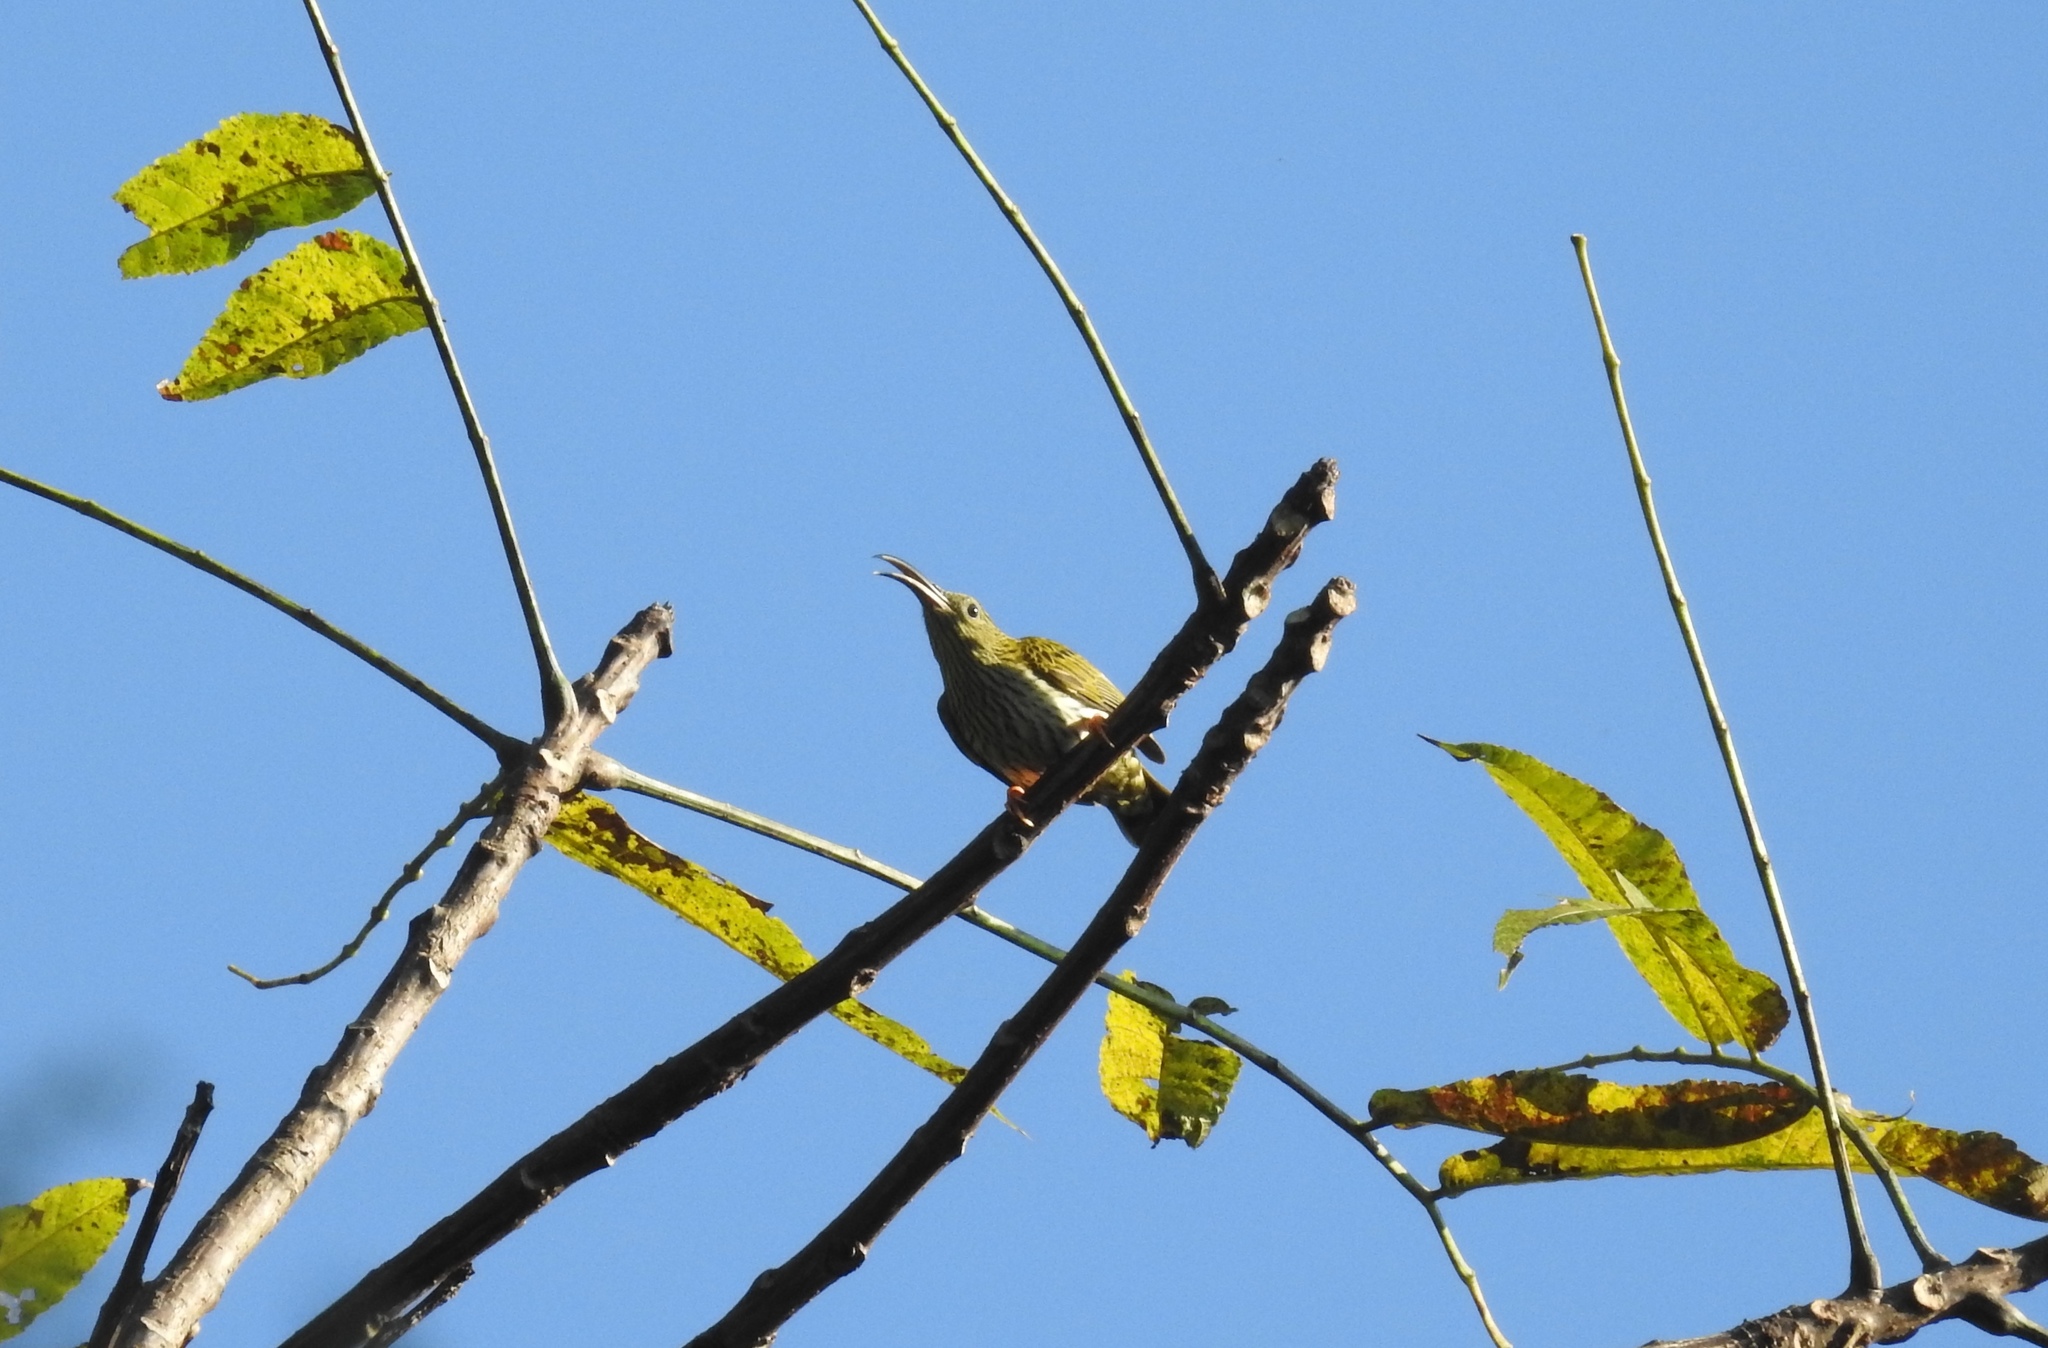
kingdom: Animalia
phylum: Chordata
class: Aves
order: Passeriformes
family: Nectariniidae
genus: Arachnothera
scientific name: Arachnothera magna
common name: Streaked spiderhunter
